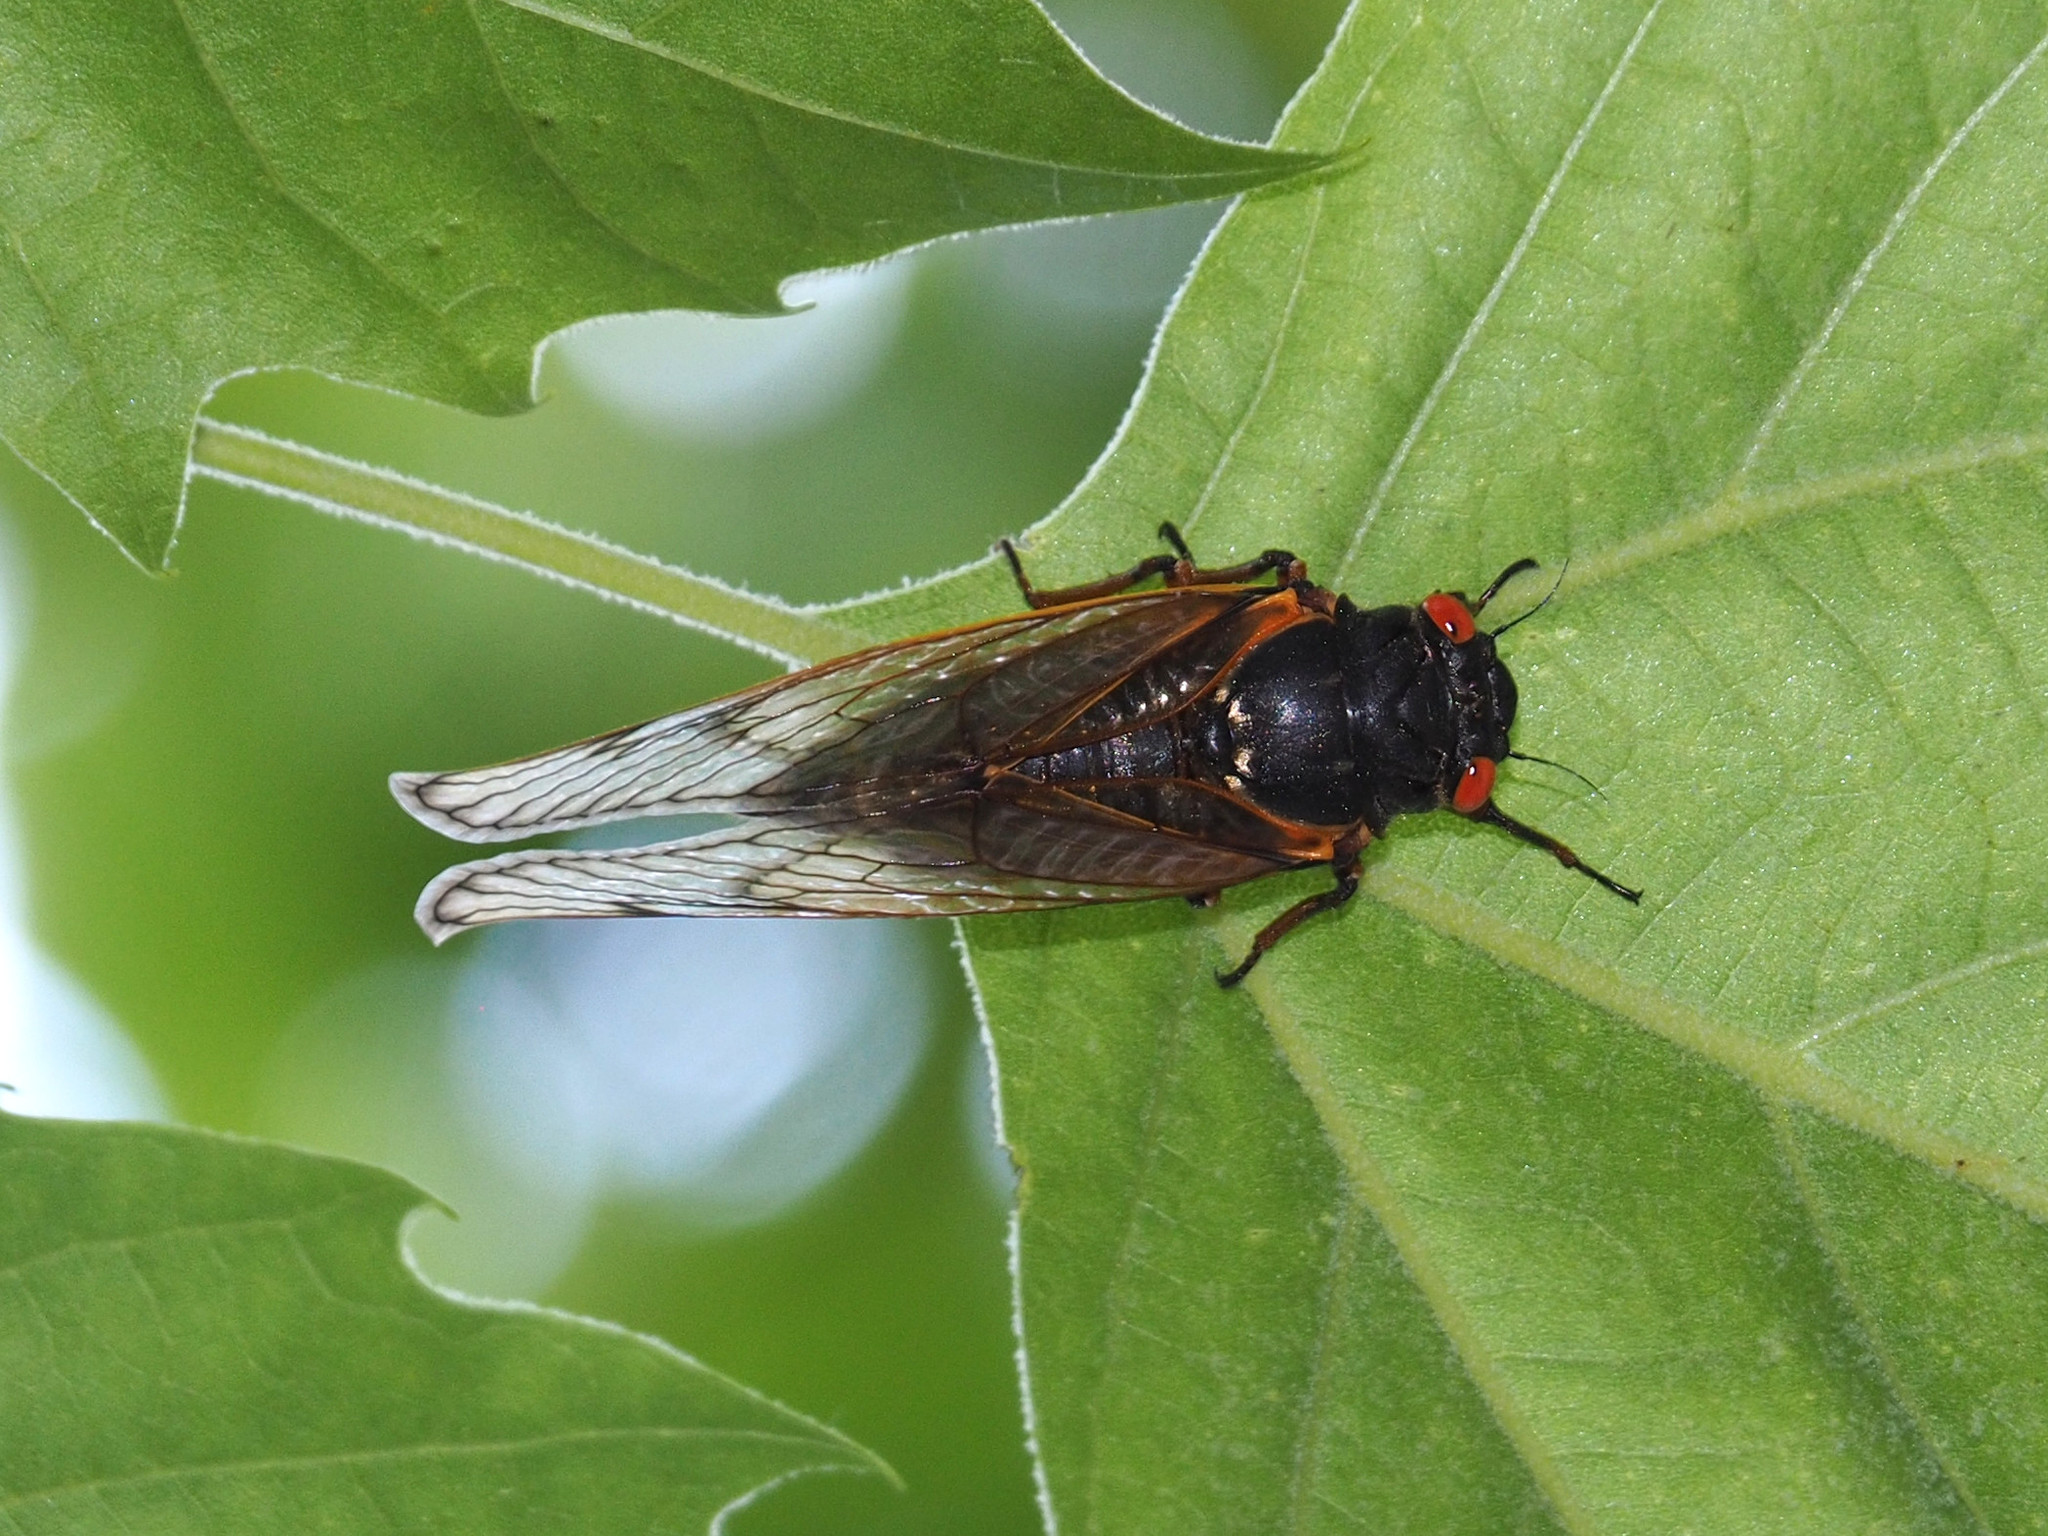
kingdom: Animalia
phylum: Arthropoda
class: Insecta
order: Hemiptera
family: Cicadidae
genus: Magicicada
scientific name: Magicicada septendecim
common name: Periodical cicada
